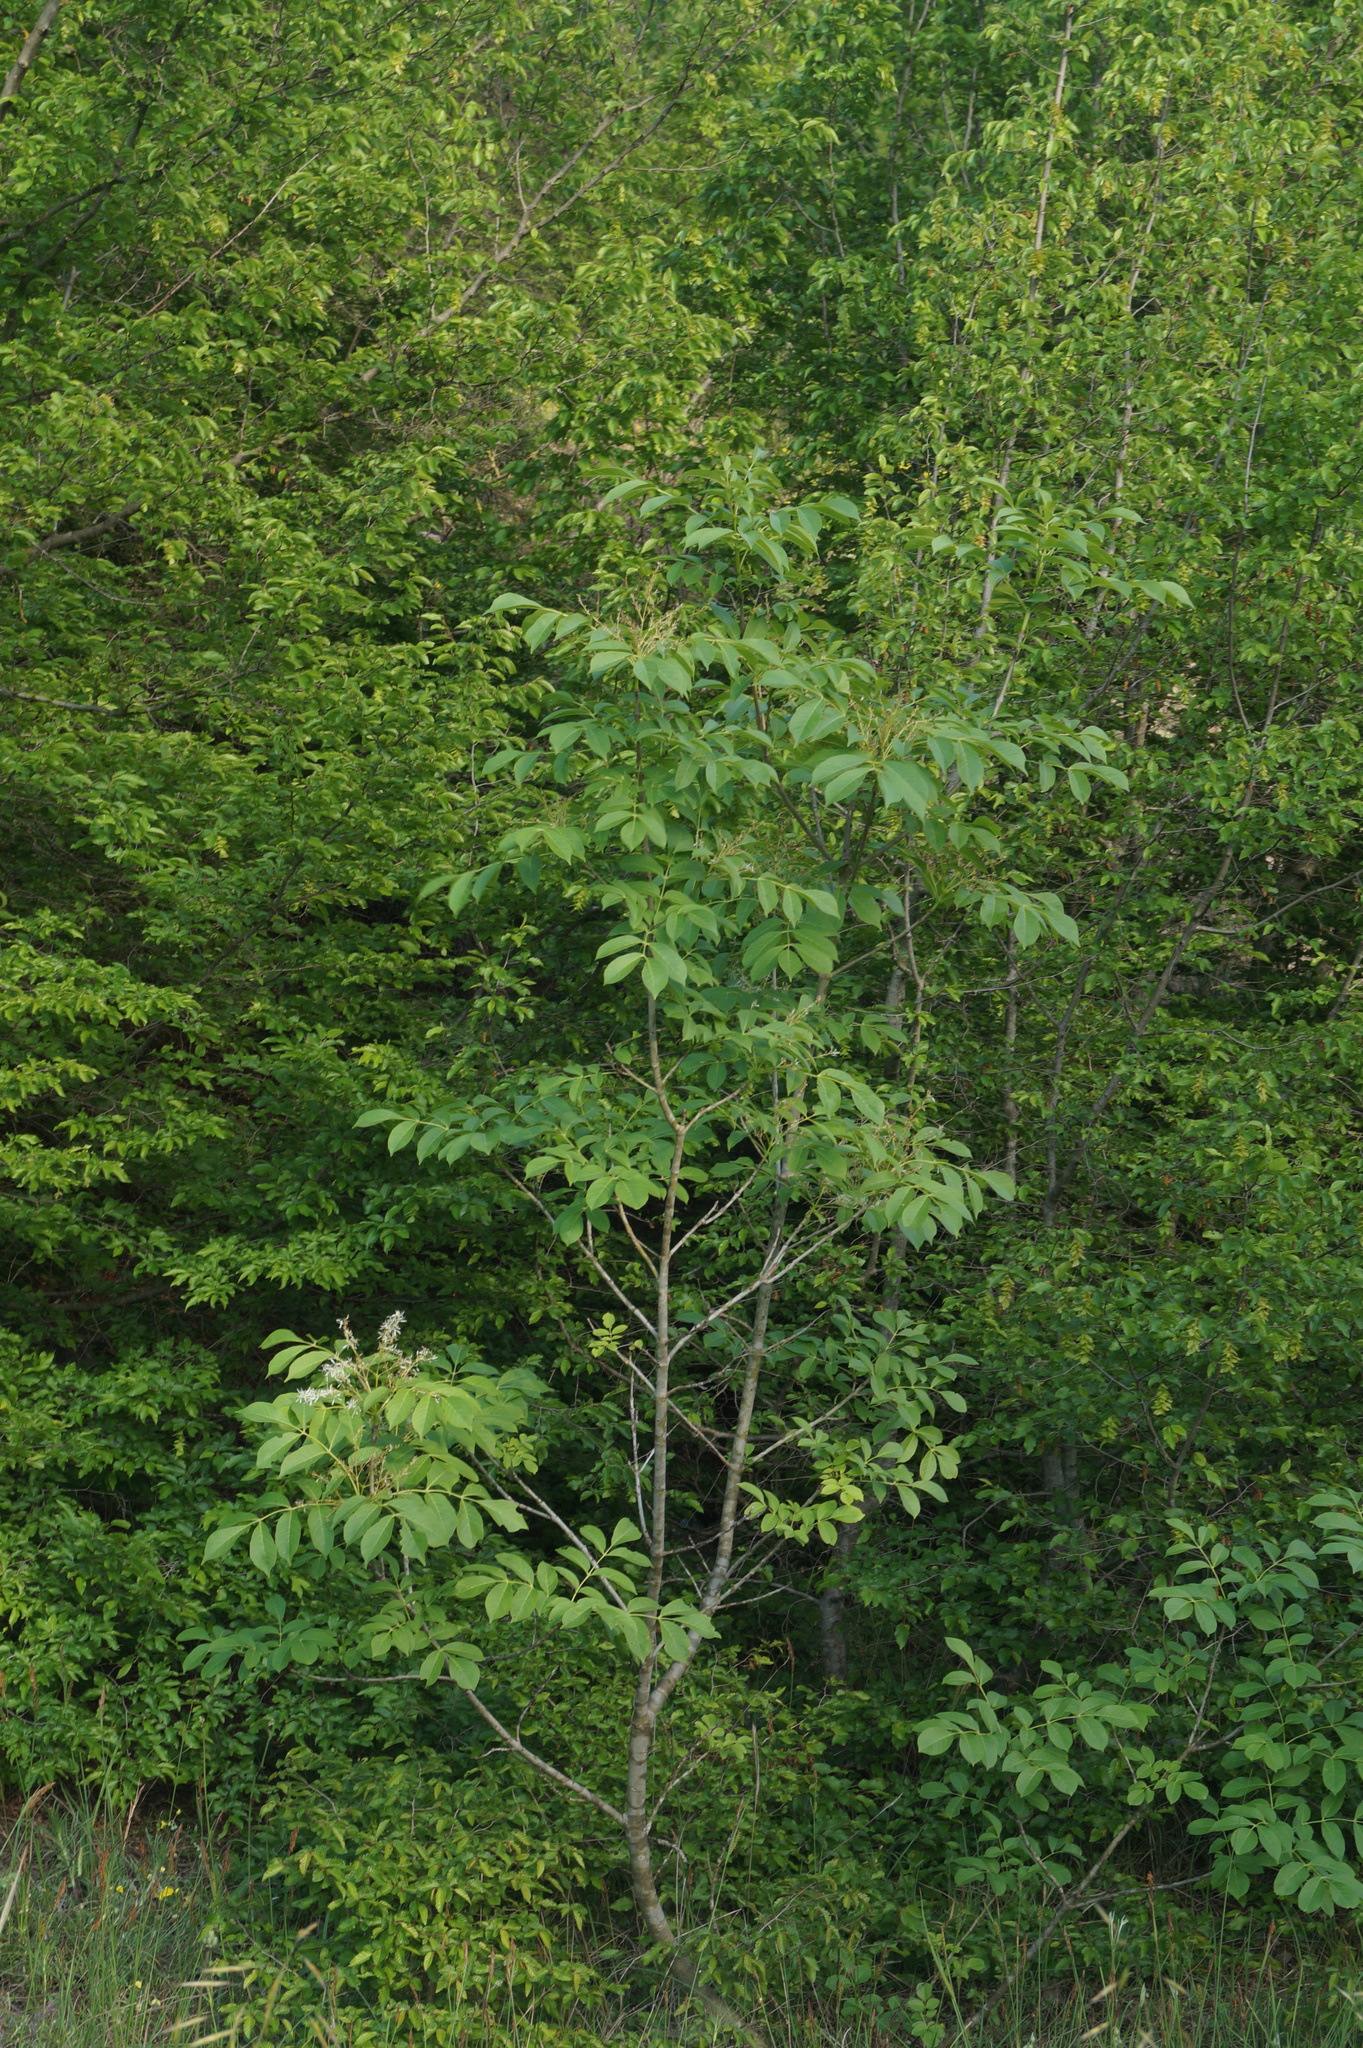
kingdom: Plantae
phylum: Tracheophyta
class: Magnoliopsida
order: Lamiales
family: Oleaceae
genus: Fraxinus
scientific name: Fraxinus ornus
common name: Manna ash
